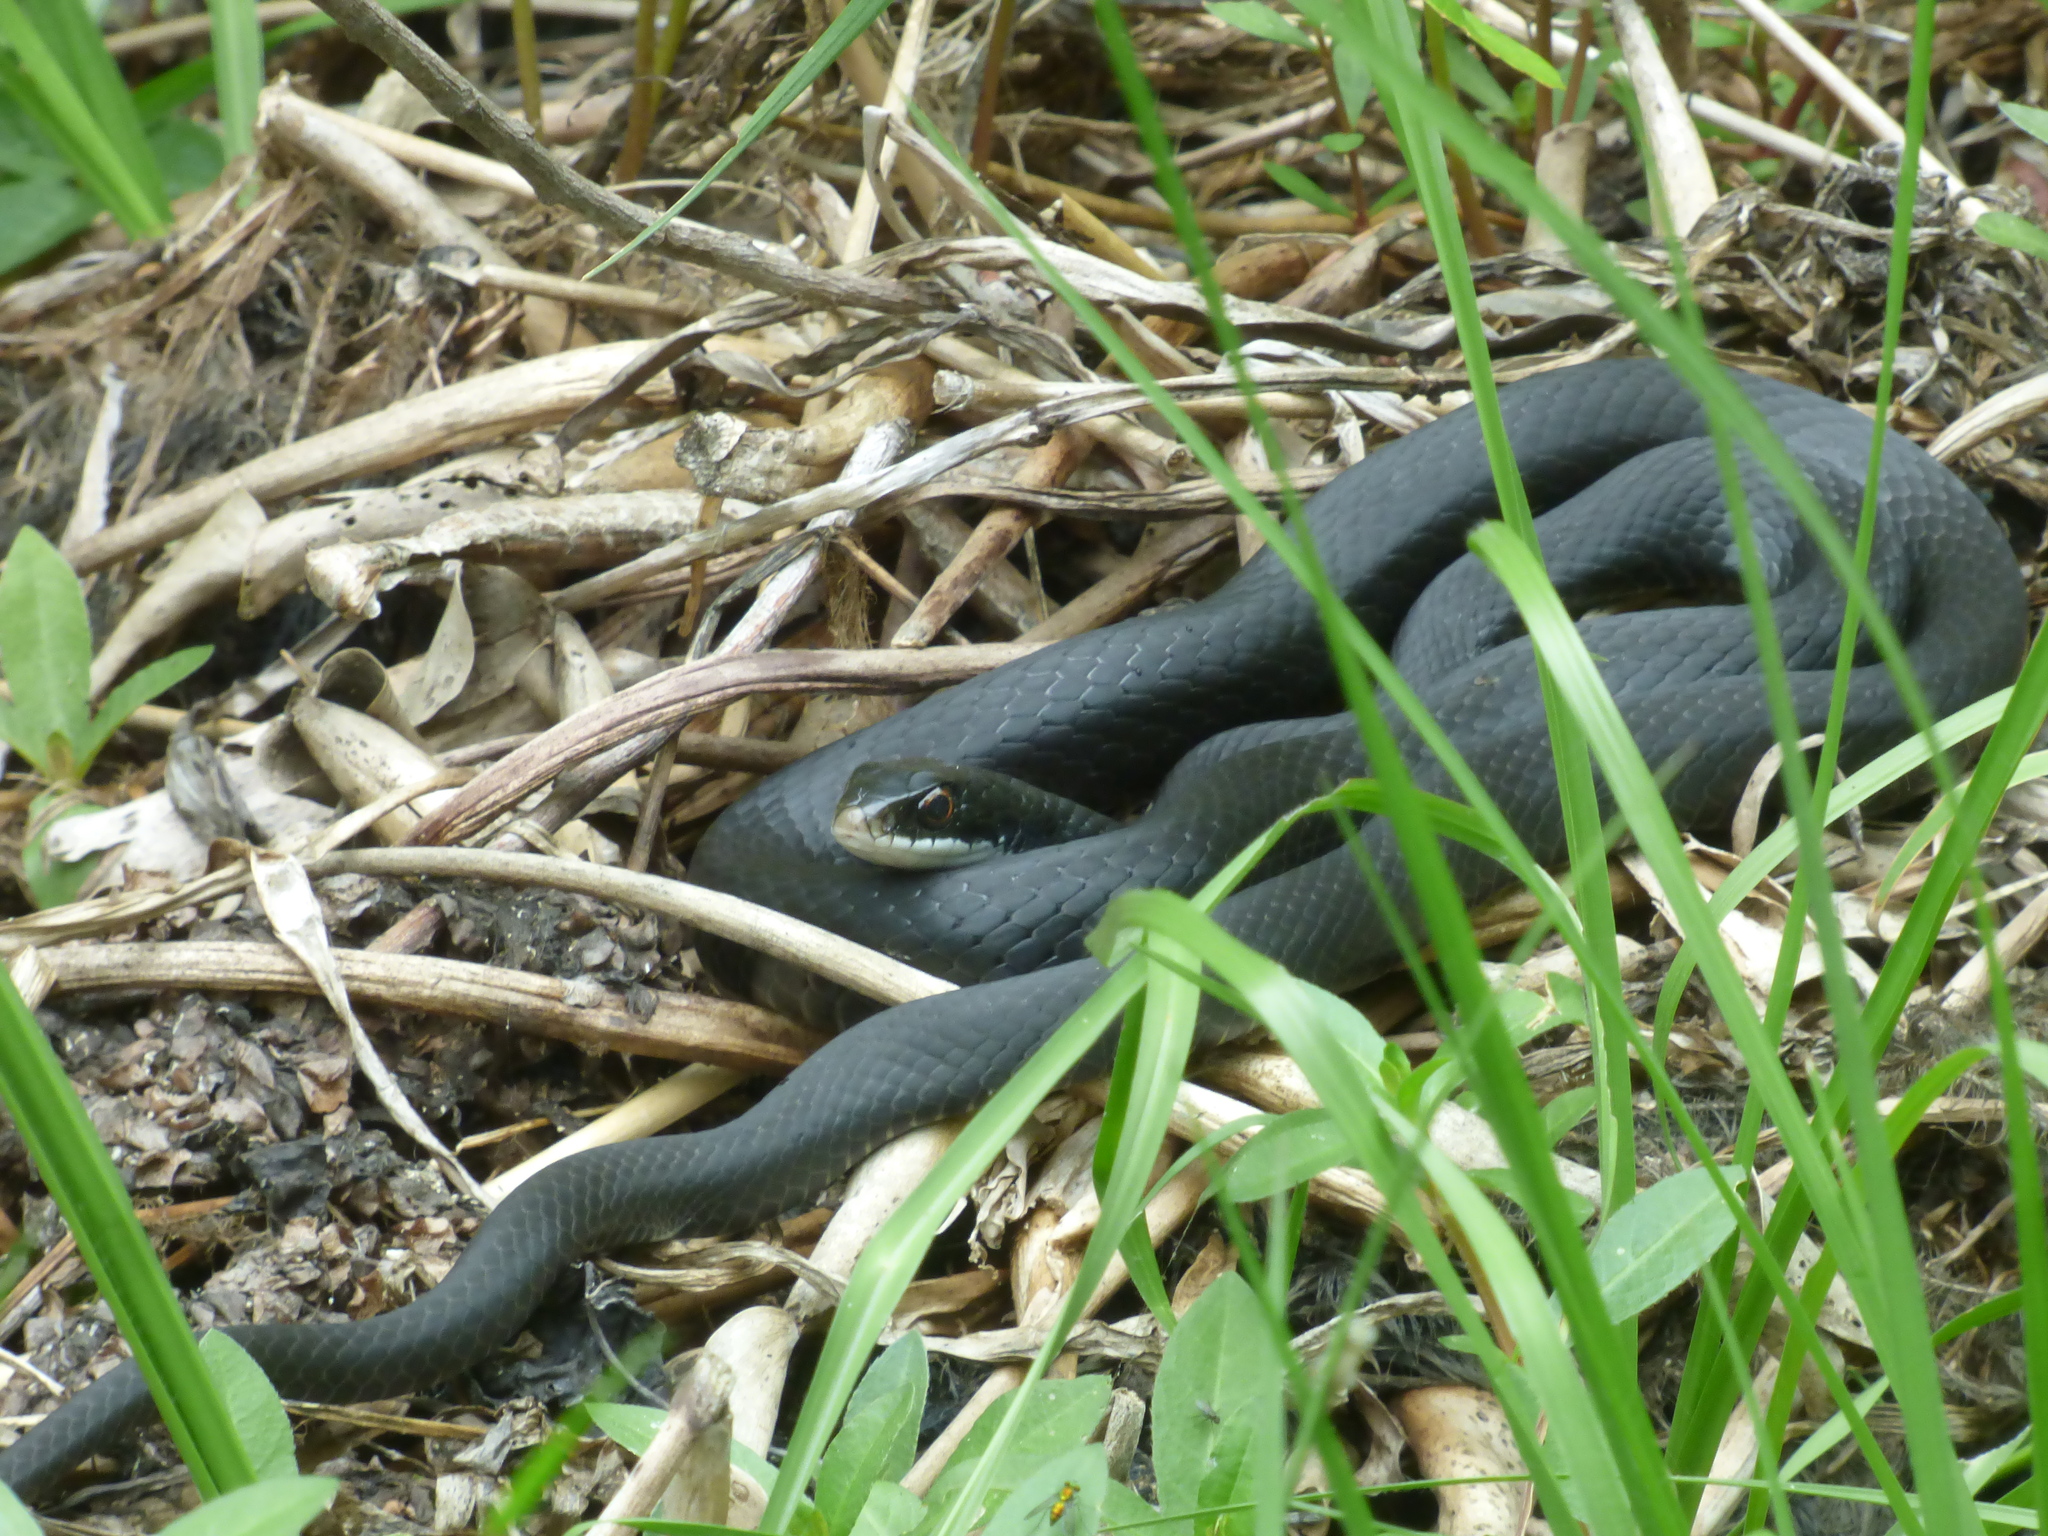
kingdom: Animalia
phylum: Chordata
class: Squamata
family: Colubridae
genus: Coluber
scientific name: Coluber constrictor
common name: Eastern racer
